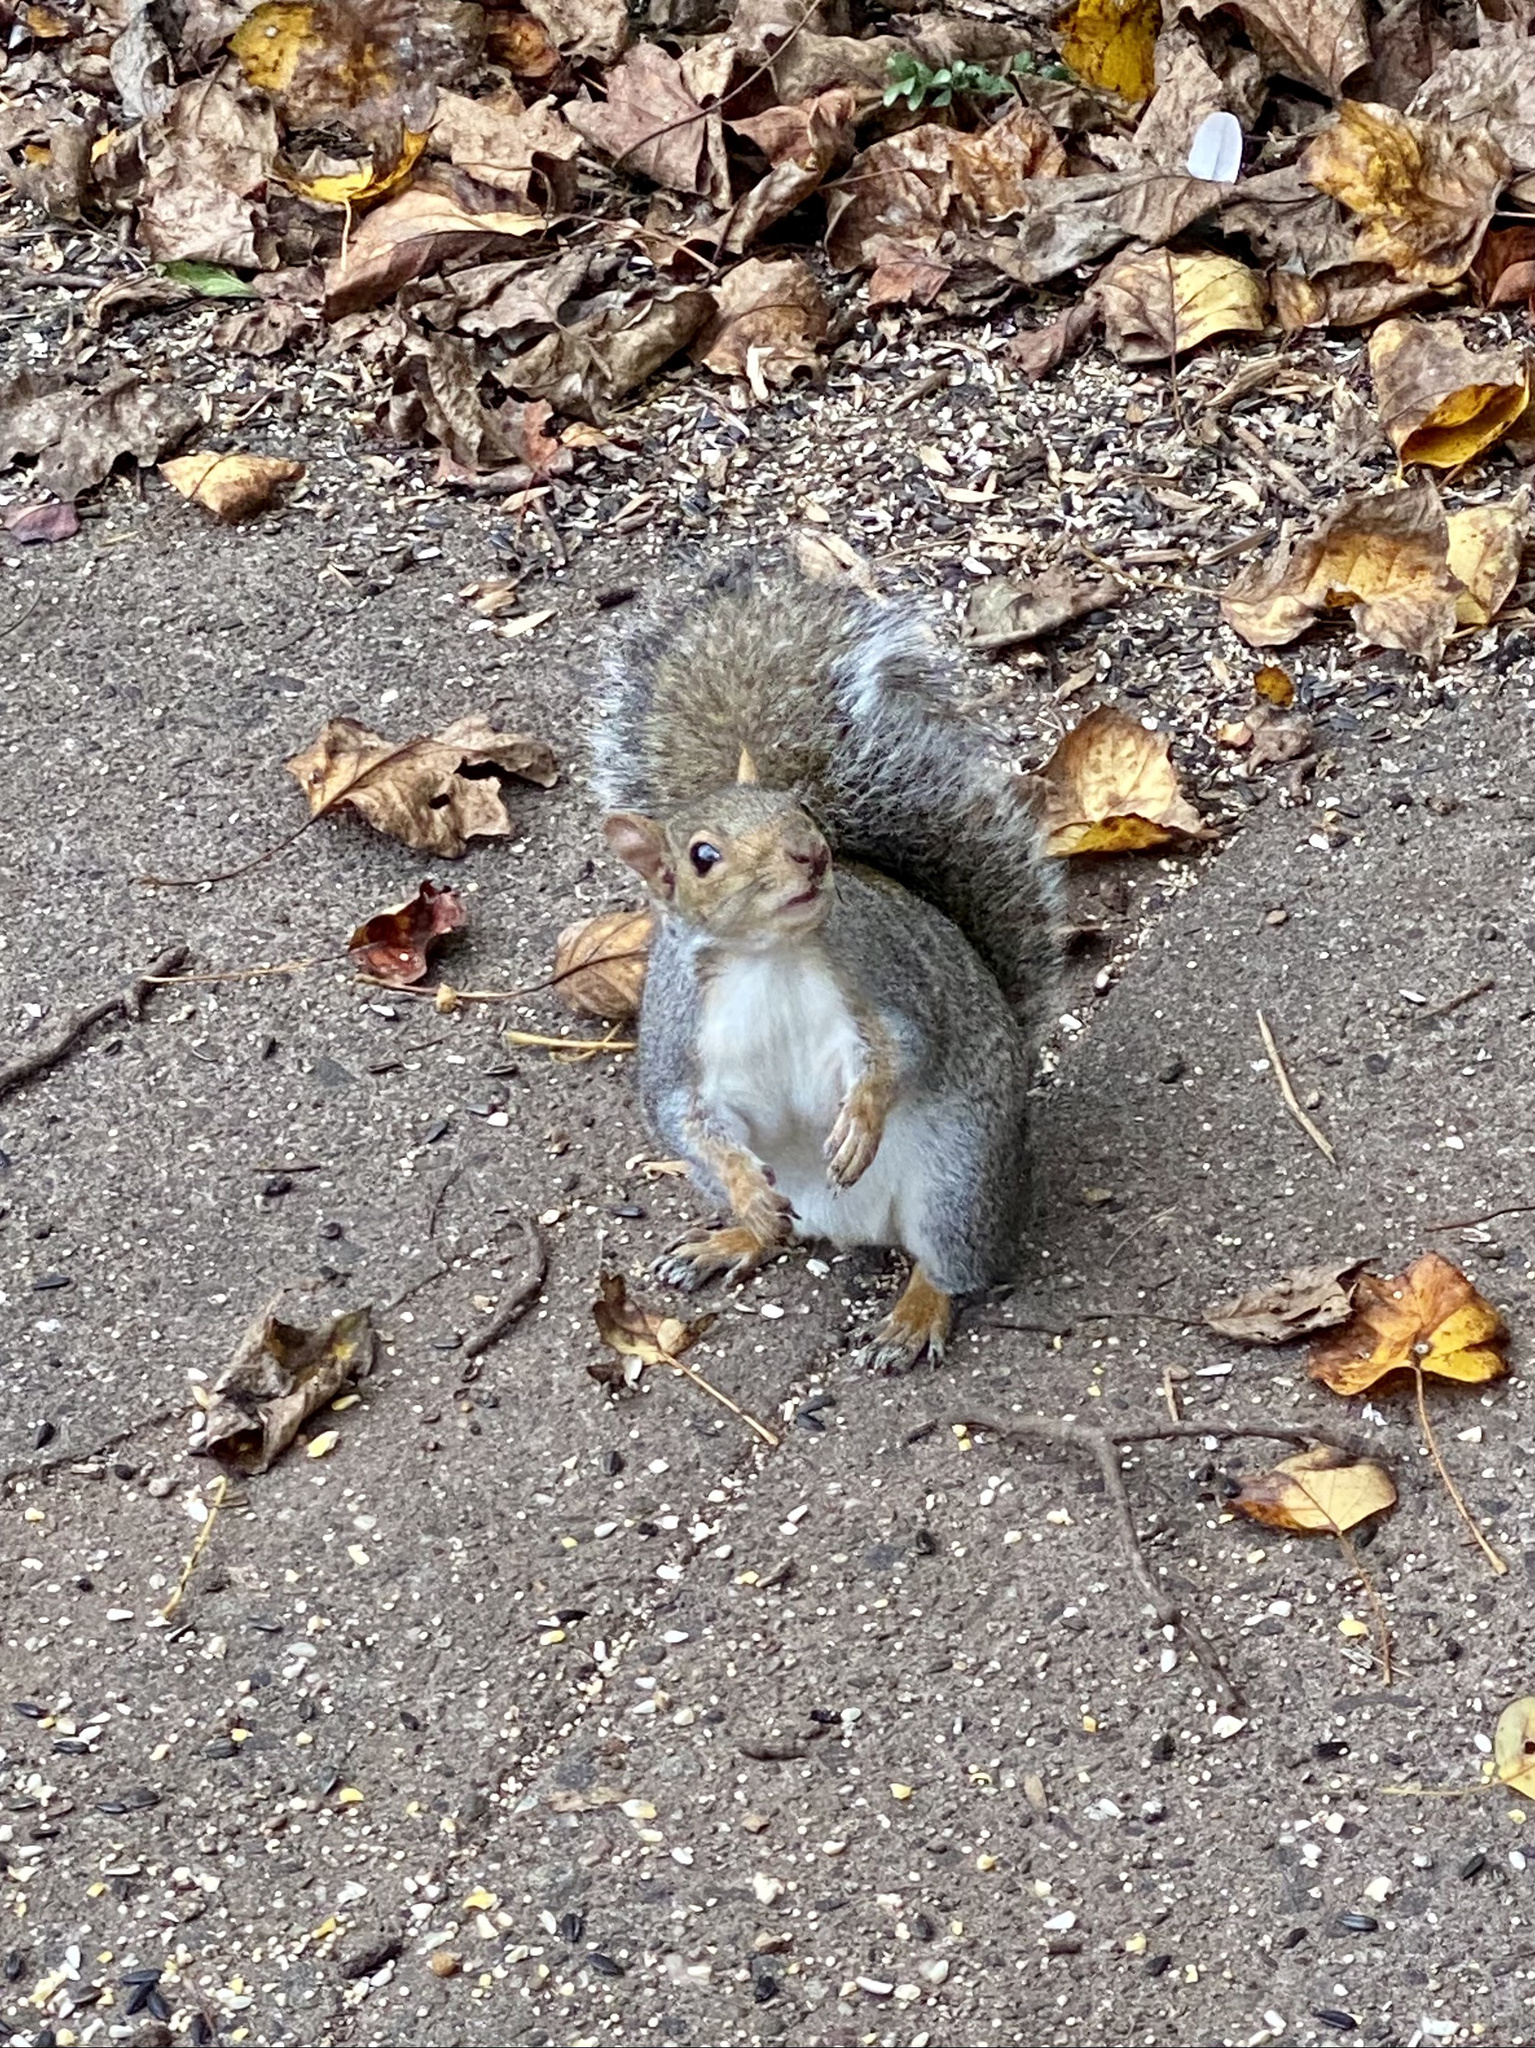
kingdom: Animalia
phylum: Chordata
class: Mammalia
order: Rodentia
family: Sciuridae
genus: Sciurus
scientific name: Sciurus carolinensis
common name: Eastern gray squirrel
